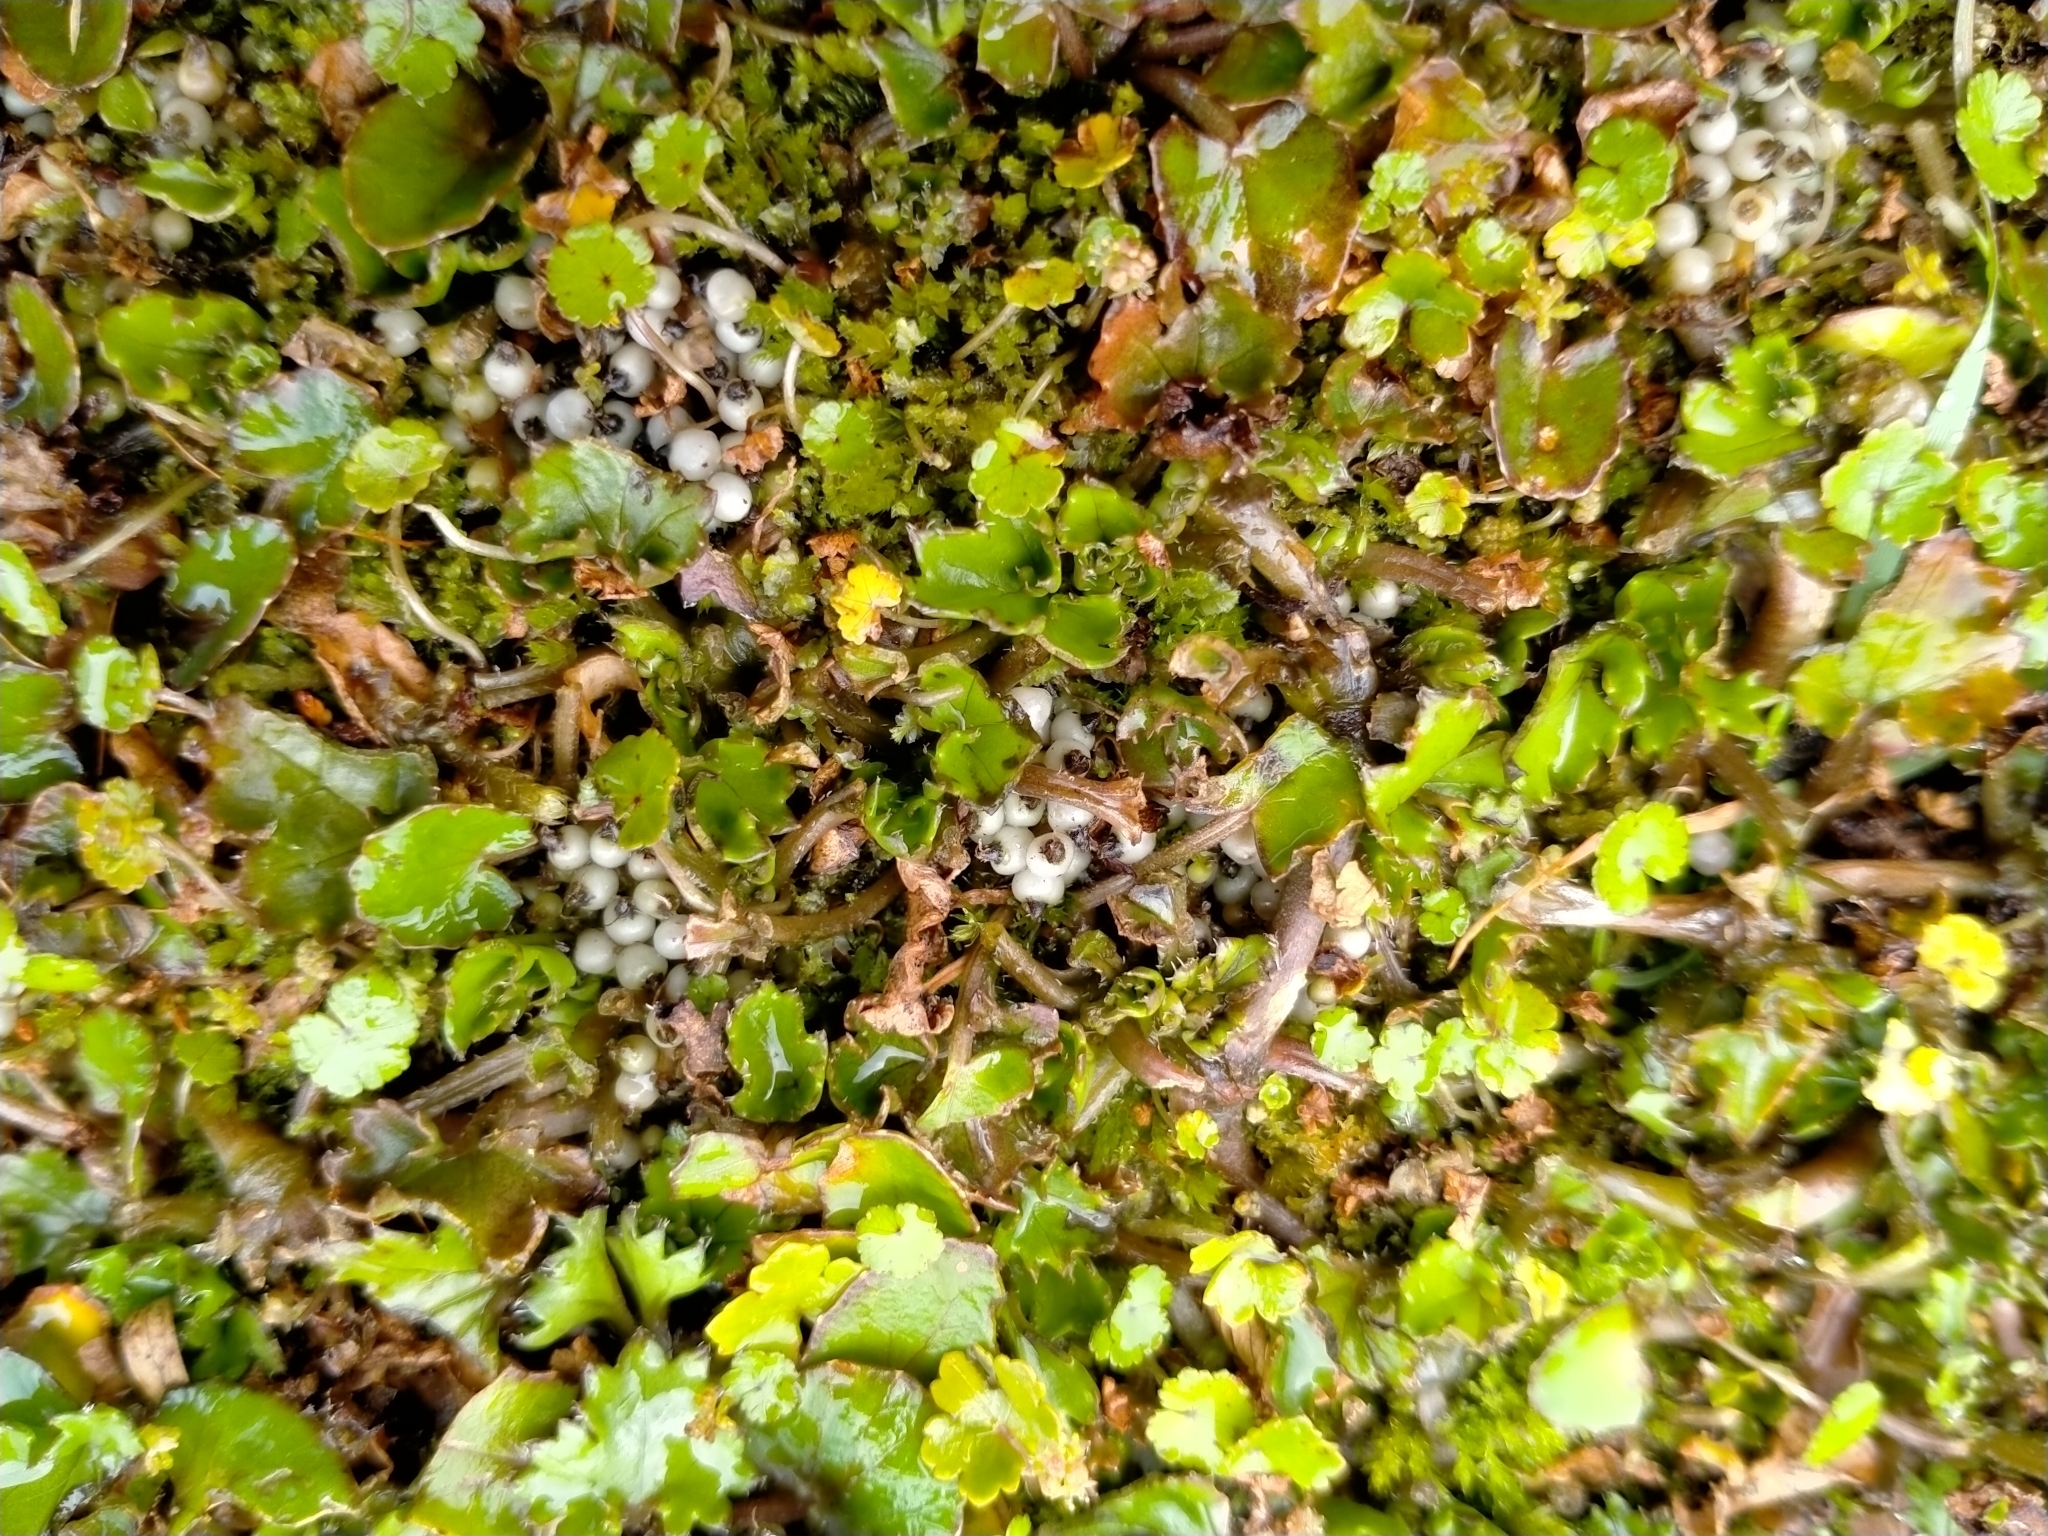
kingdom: Plantae
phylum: Tracheophyta
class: Magnoliopsida
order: Gunnerales
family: Gunneraceae
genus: Gunnera
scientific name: Gunnera monoica
